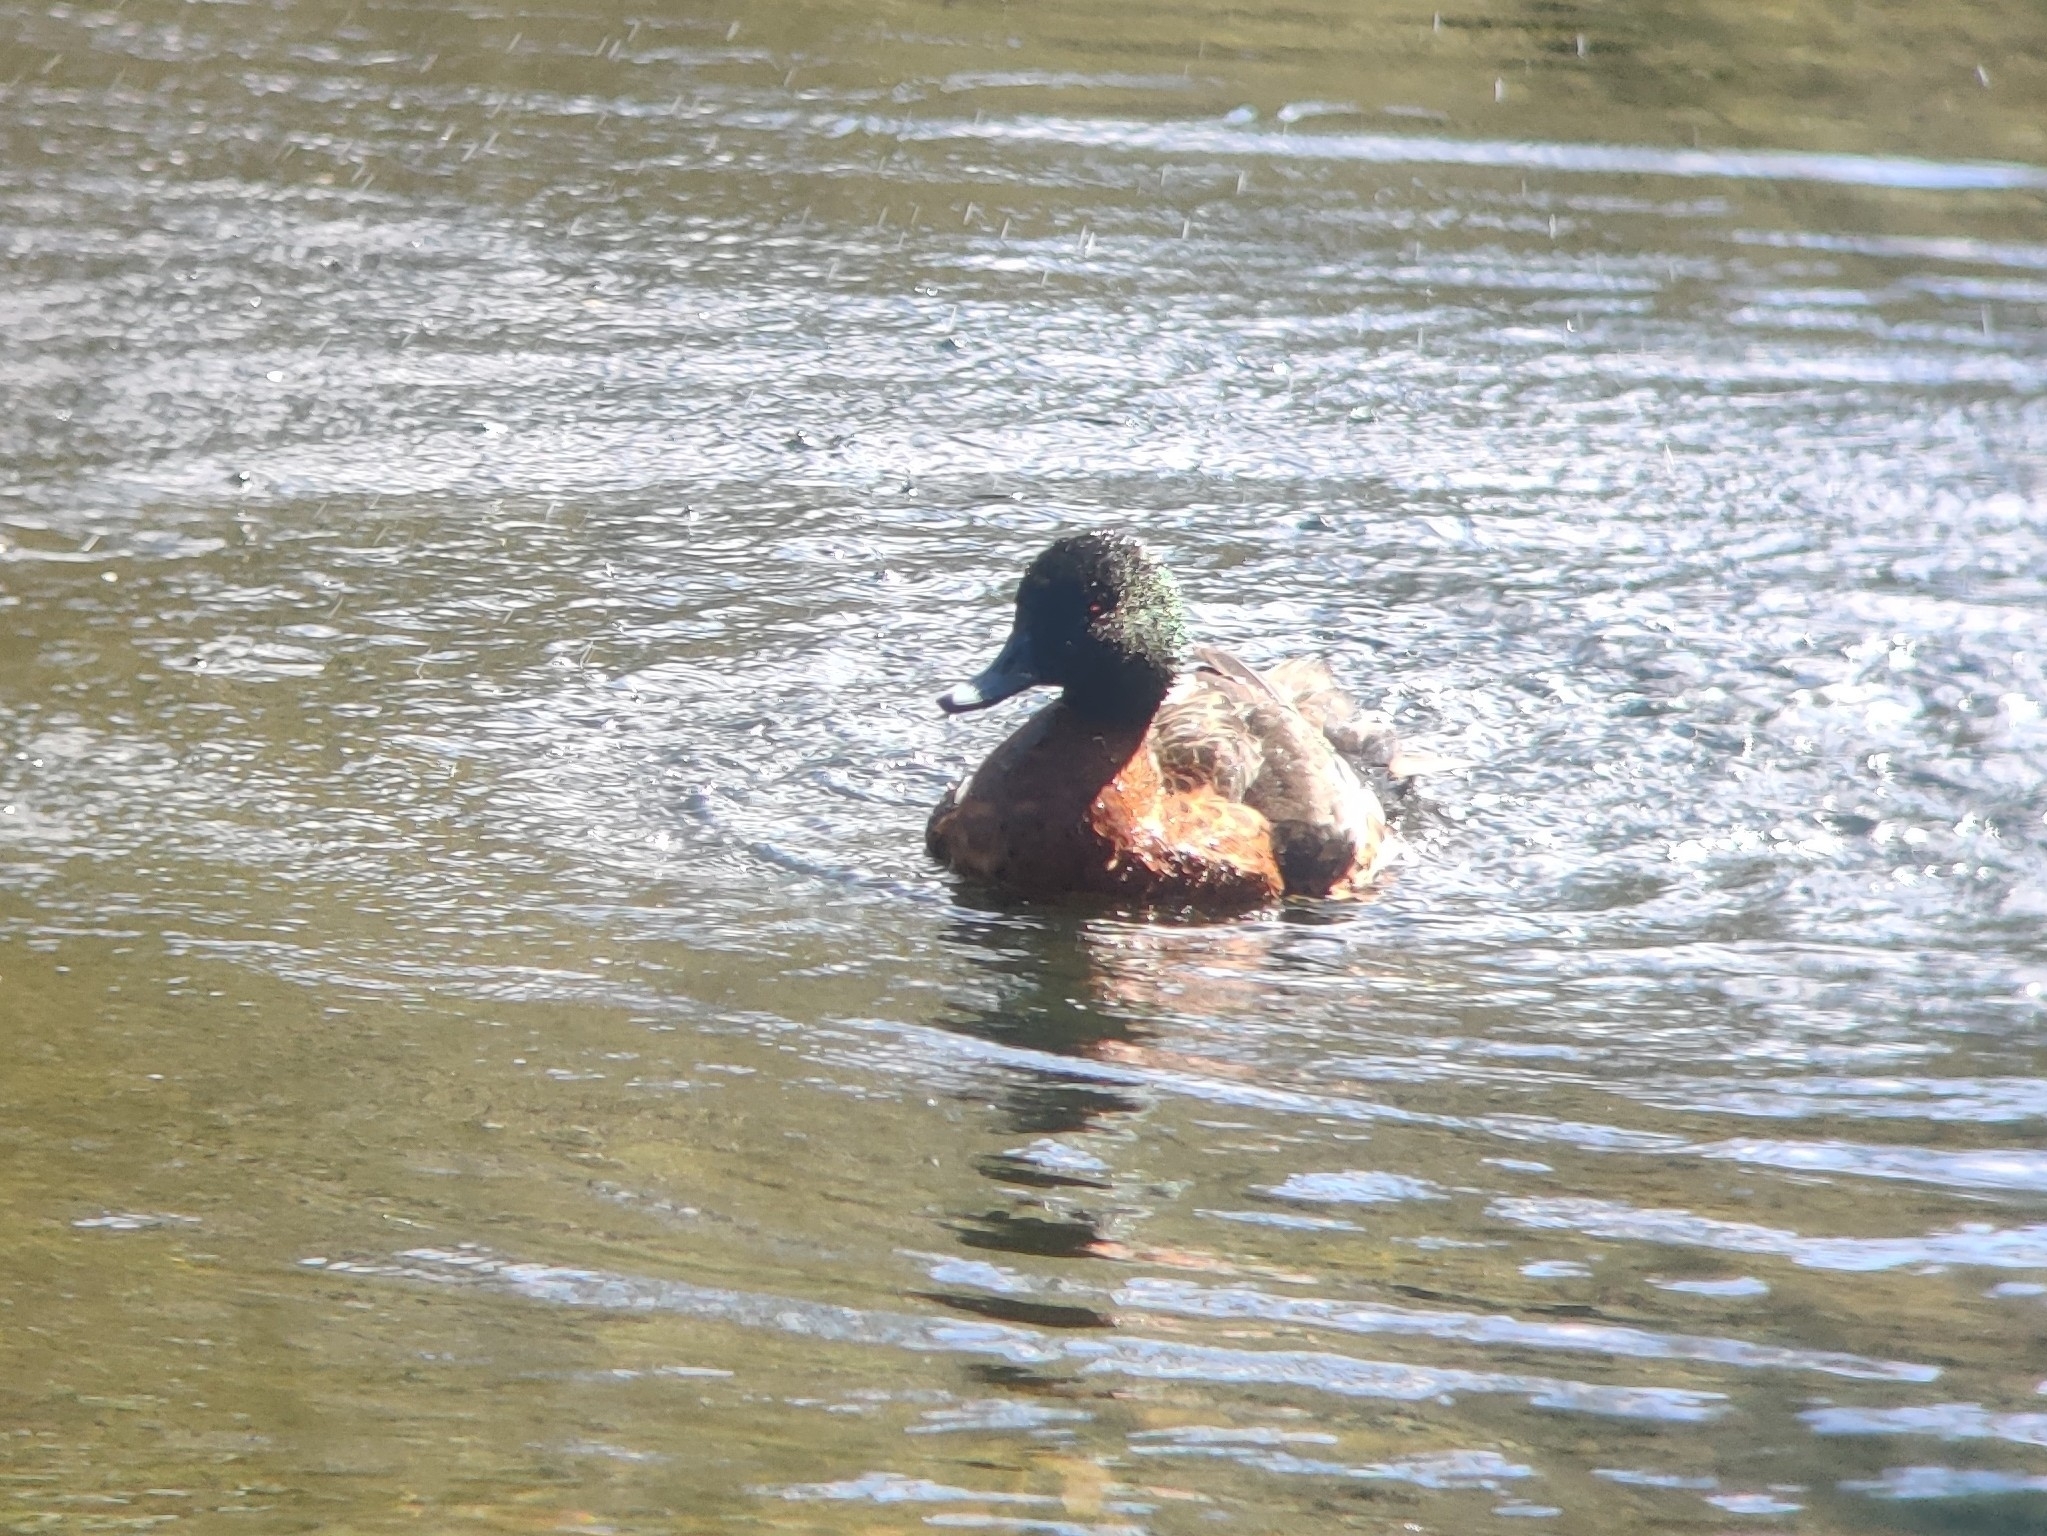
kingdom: Animalia
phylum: Chordata
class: Aves
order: Anseriformes
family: Anatidae
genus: Anas
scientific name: Anas castanea
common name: Chestnut teal
